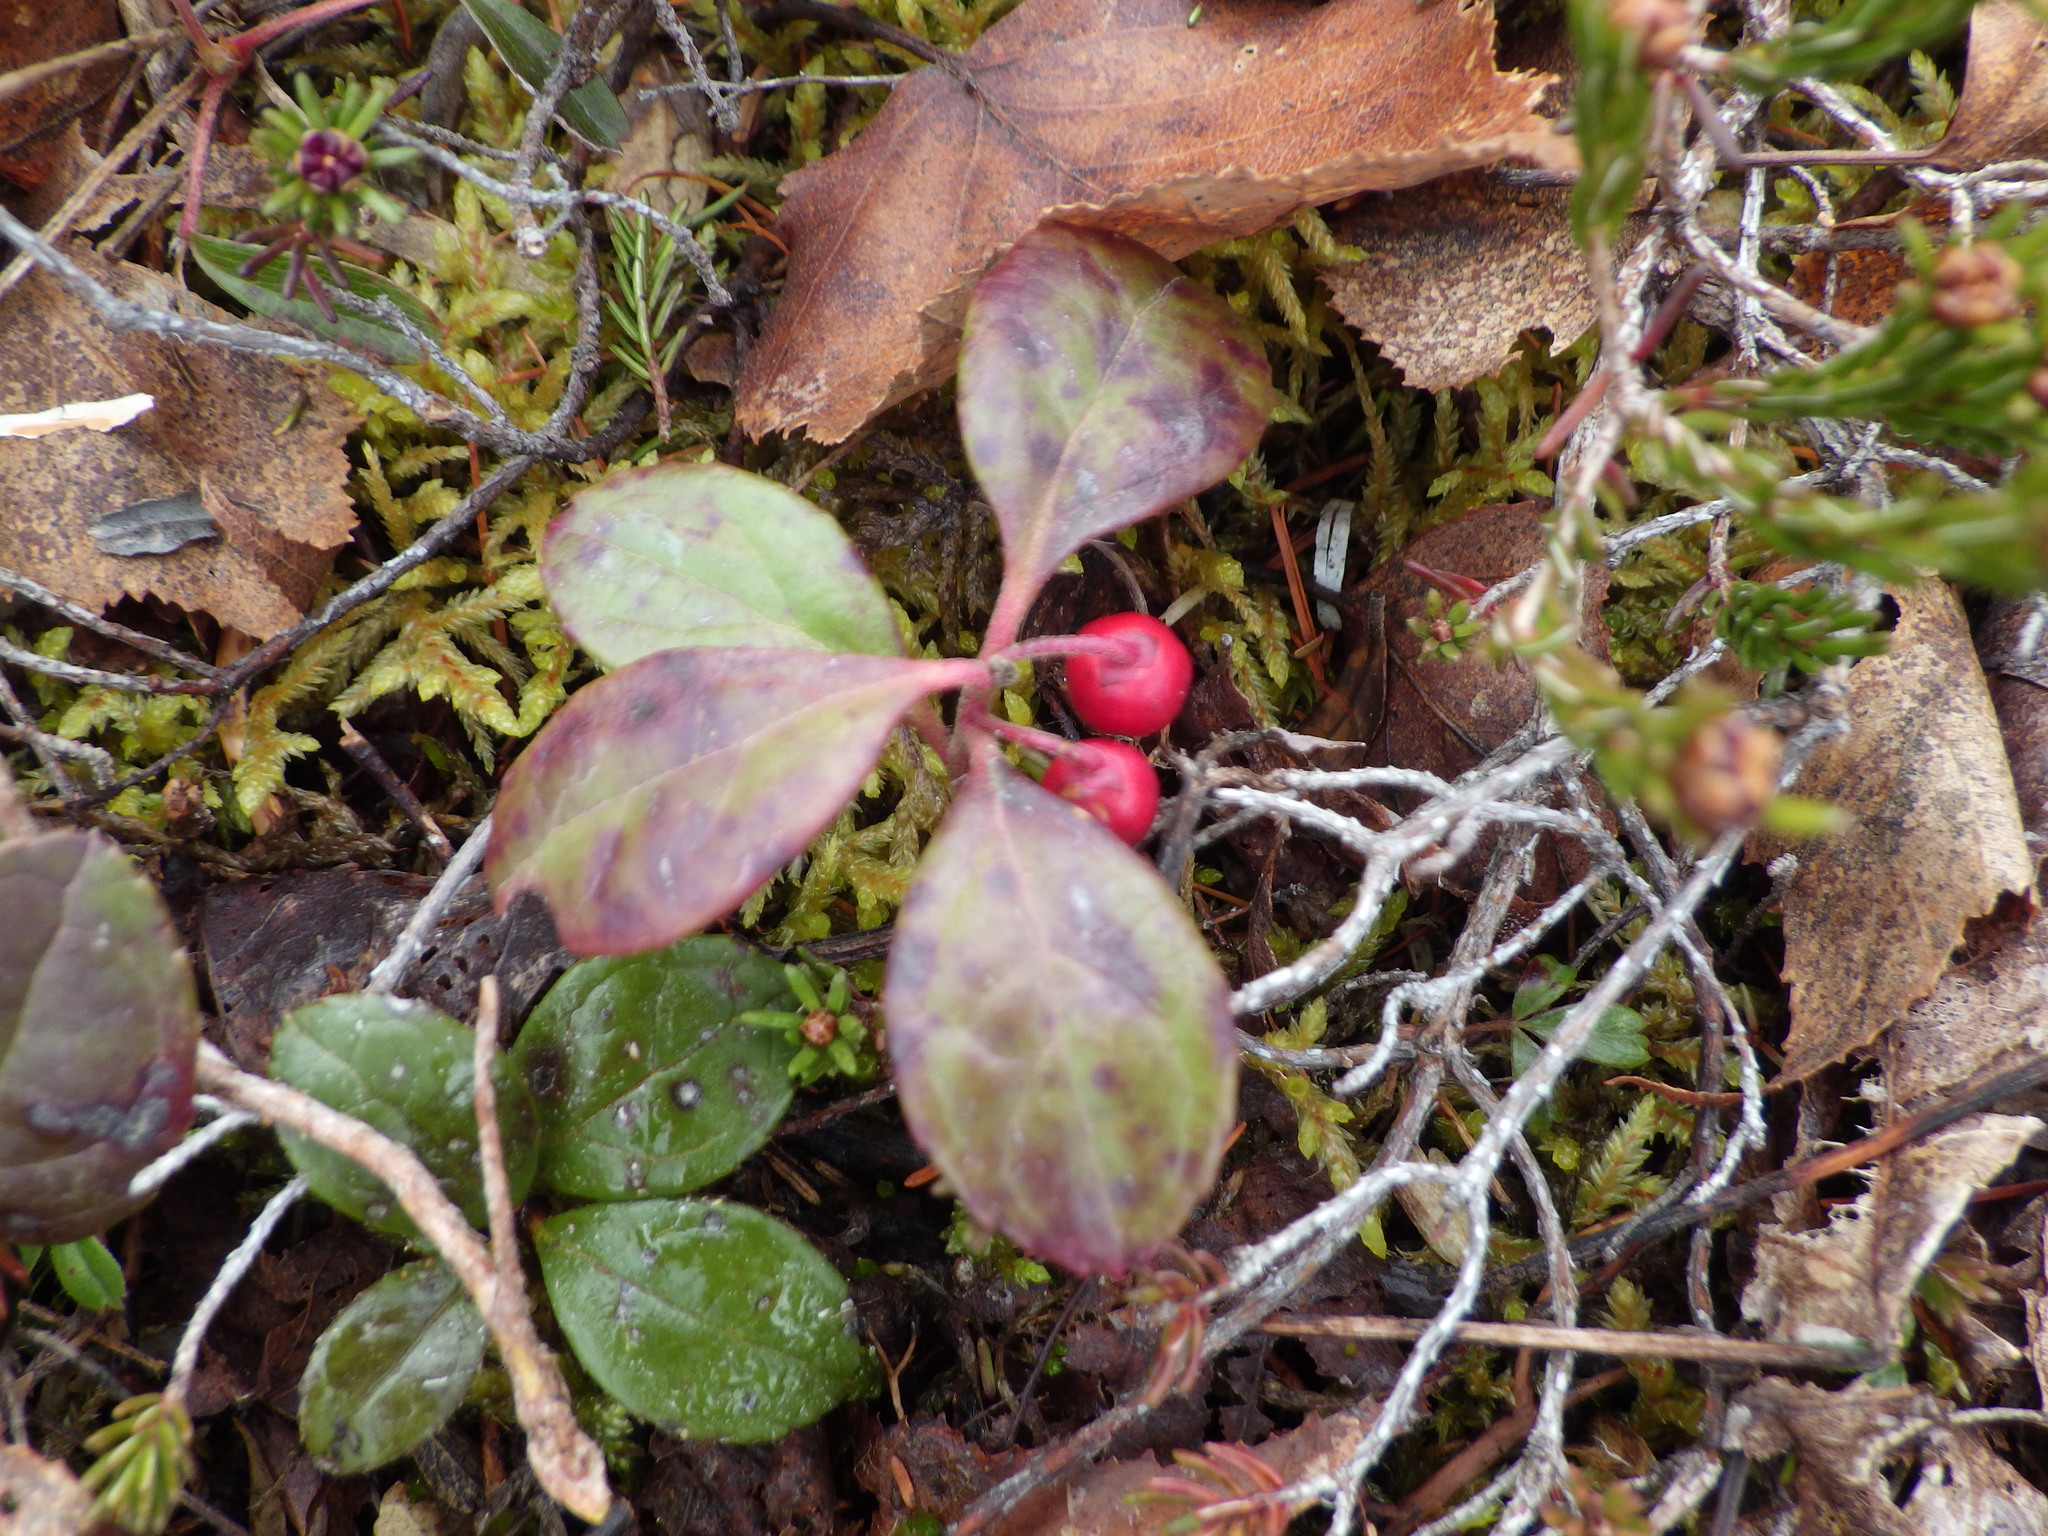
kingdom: Plantae
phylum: Tracheophyta
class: Magnoliopsida
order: Ericales
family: Ericaceae
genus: Gaultheria
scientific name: Gaultheria procumbens
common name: Checkerberry
